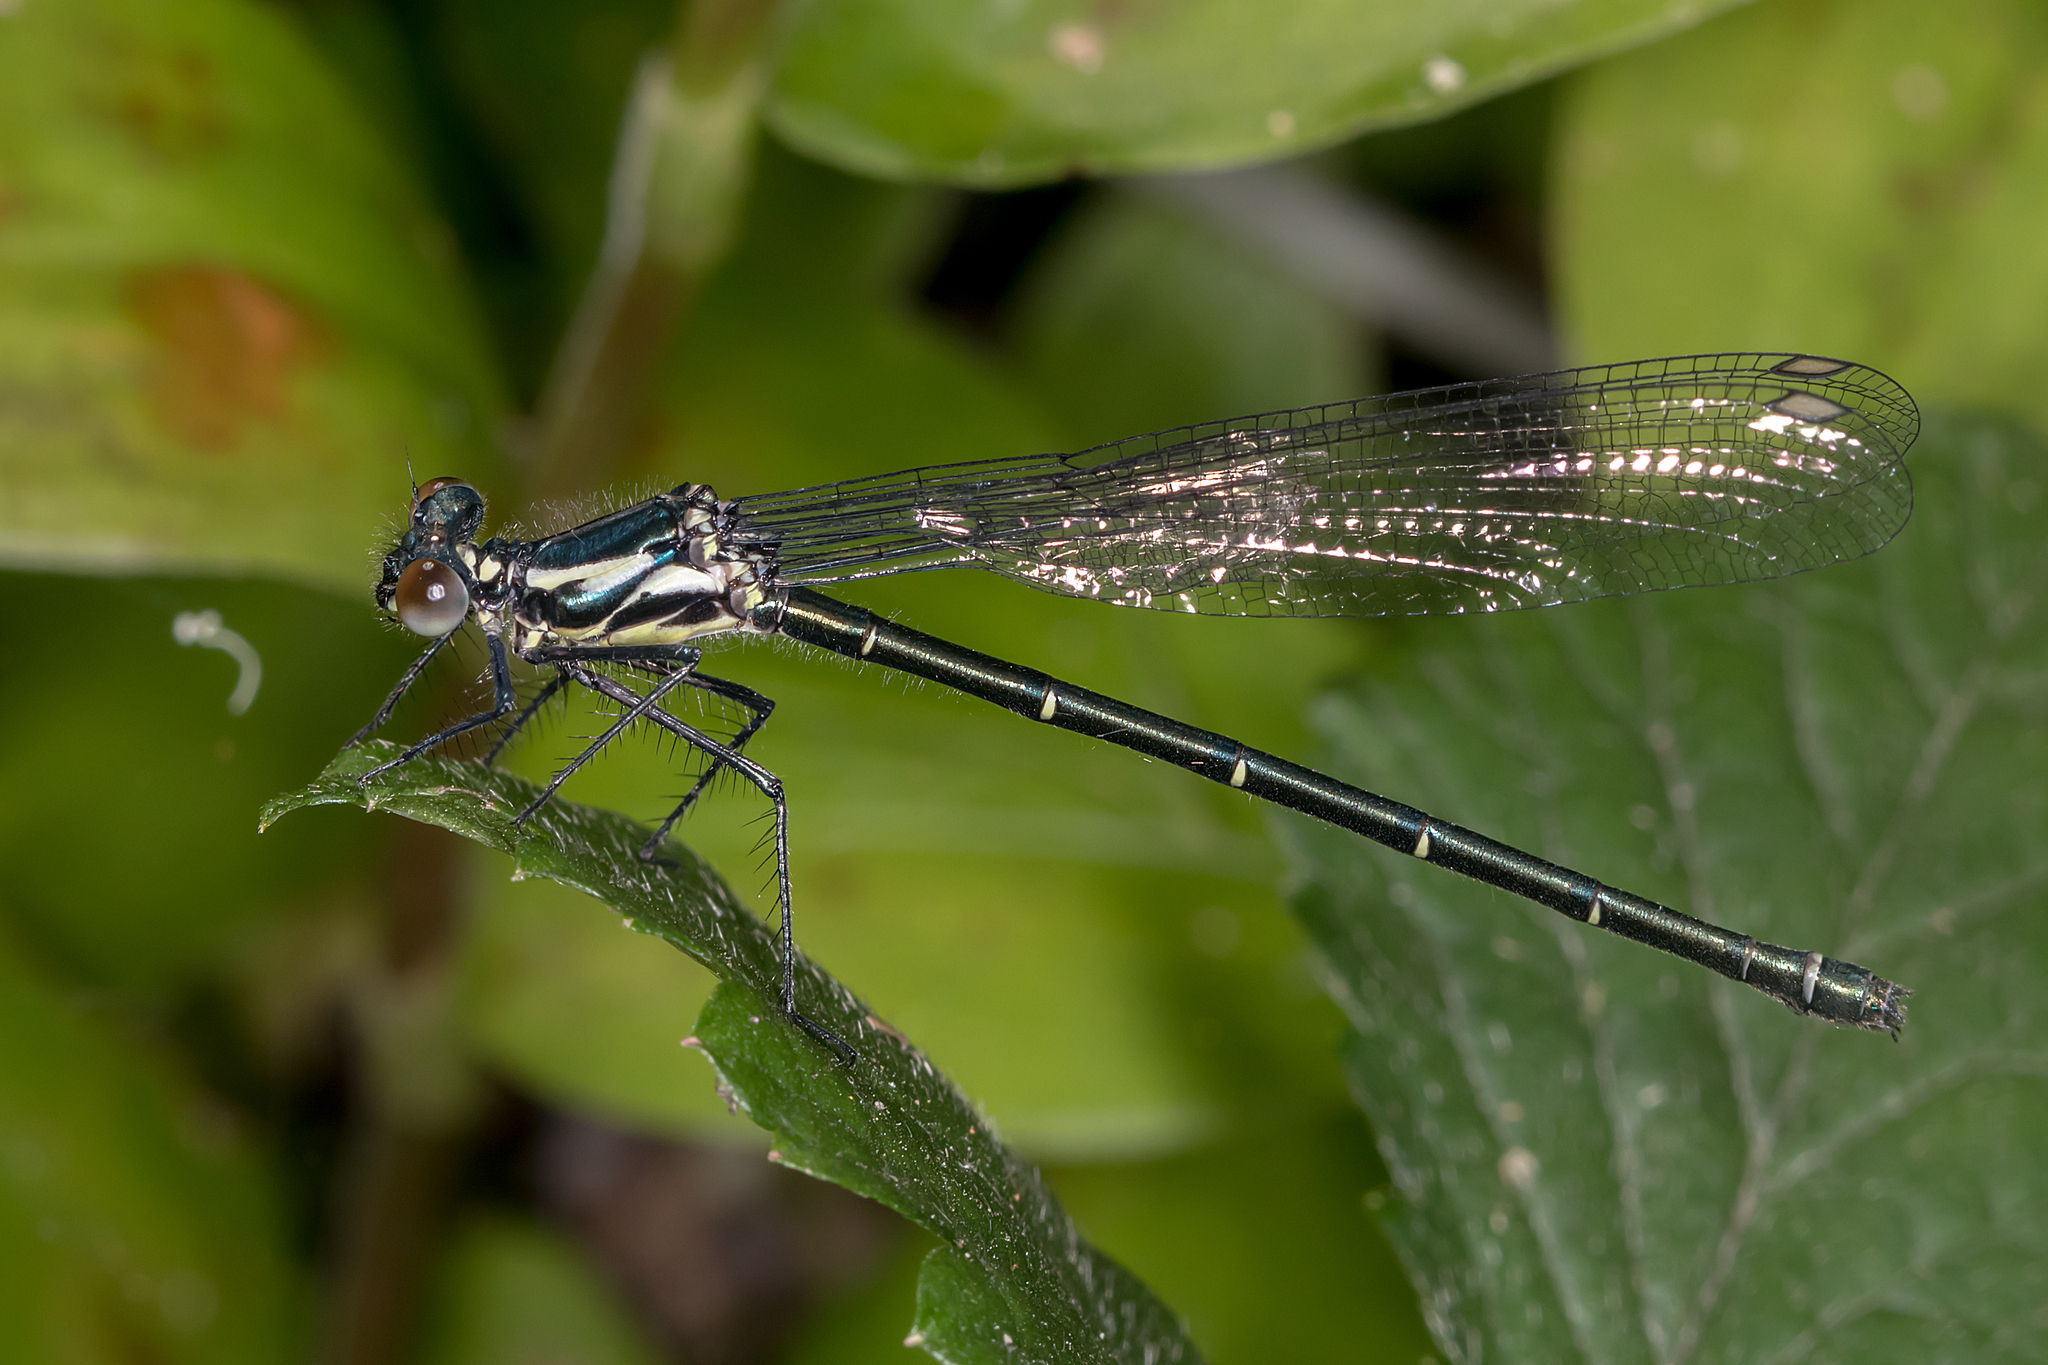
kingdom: Animalia
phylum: Arthropoda
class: Insecta
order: Odonata
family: Argiolestidae
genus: Austroargiolestes
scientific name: Austroargiolestes icteromelas
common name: Common flatwing
